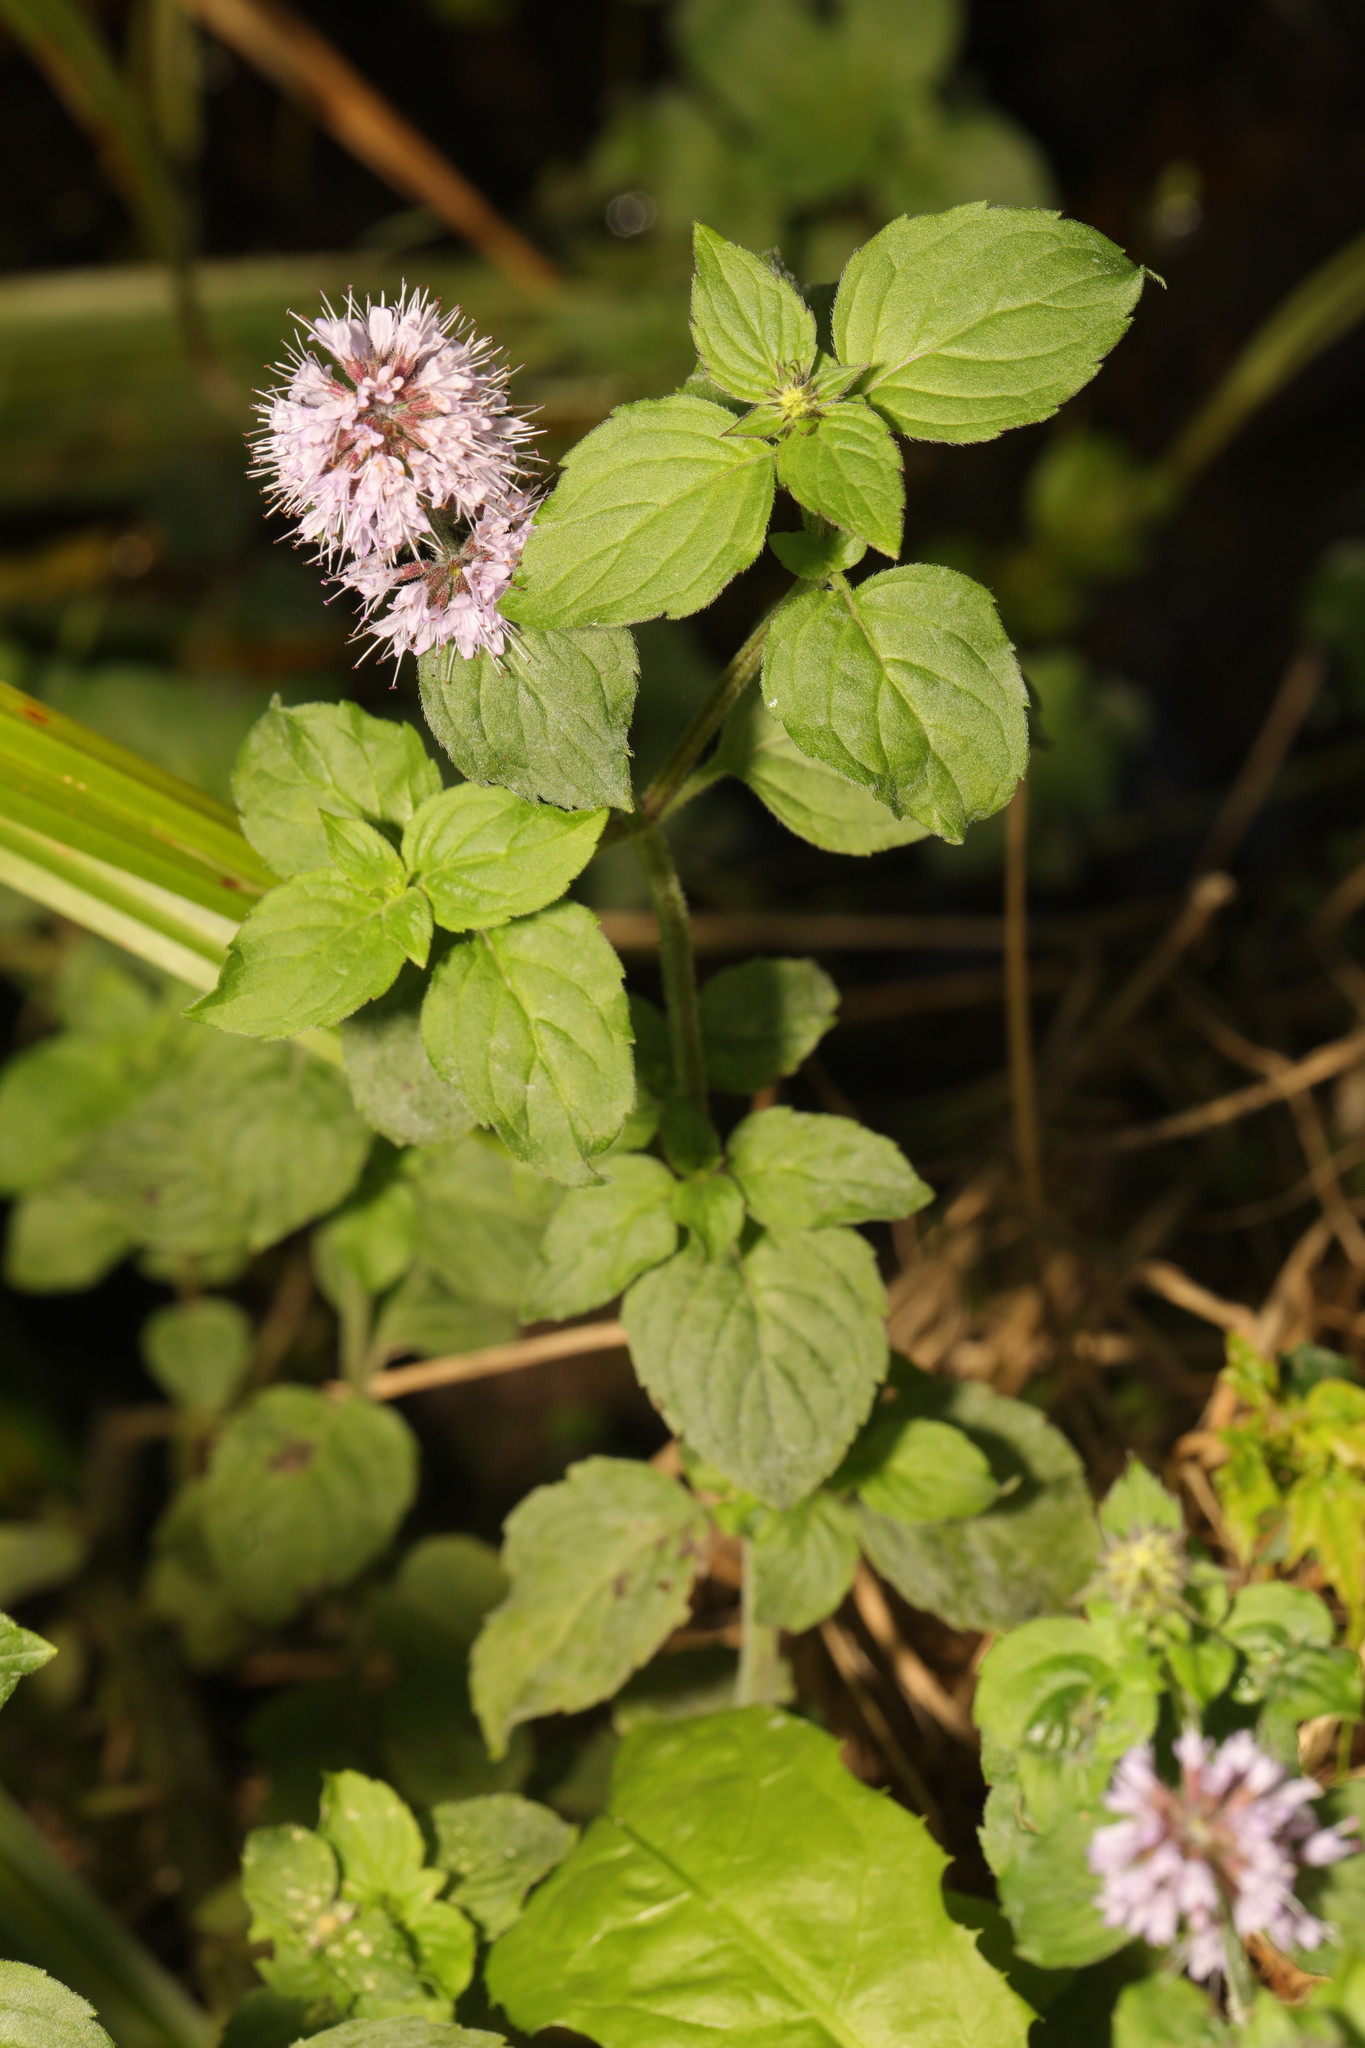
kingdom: Plantae
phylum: Tracheophyta
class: Magnoliopsida
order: Lamiales
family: Lamiaceae
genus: Mentha
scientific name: Mentha aquatica
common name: Water mint
